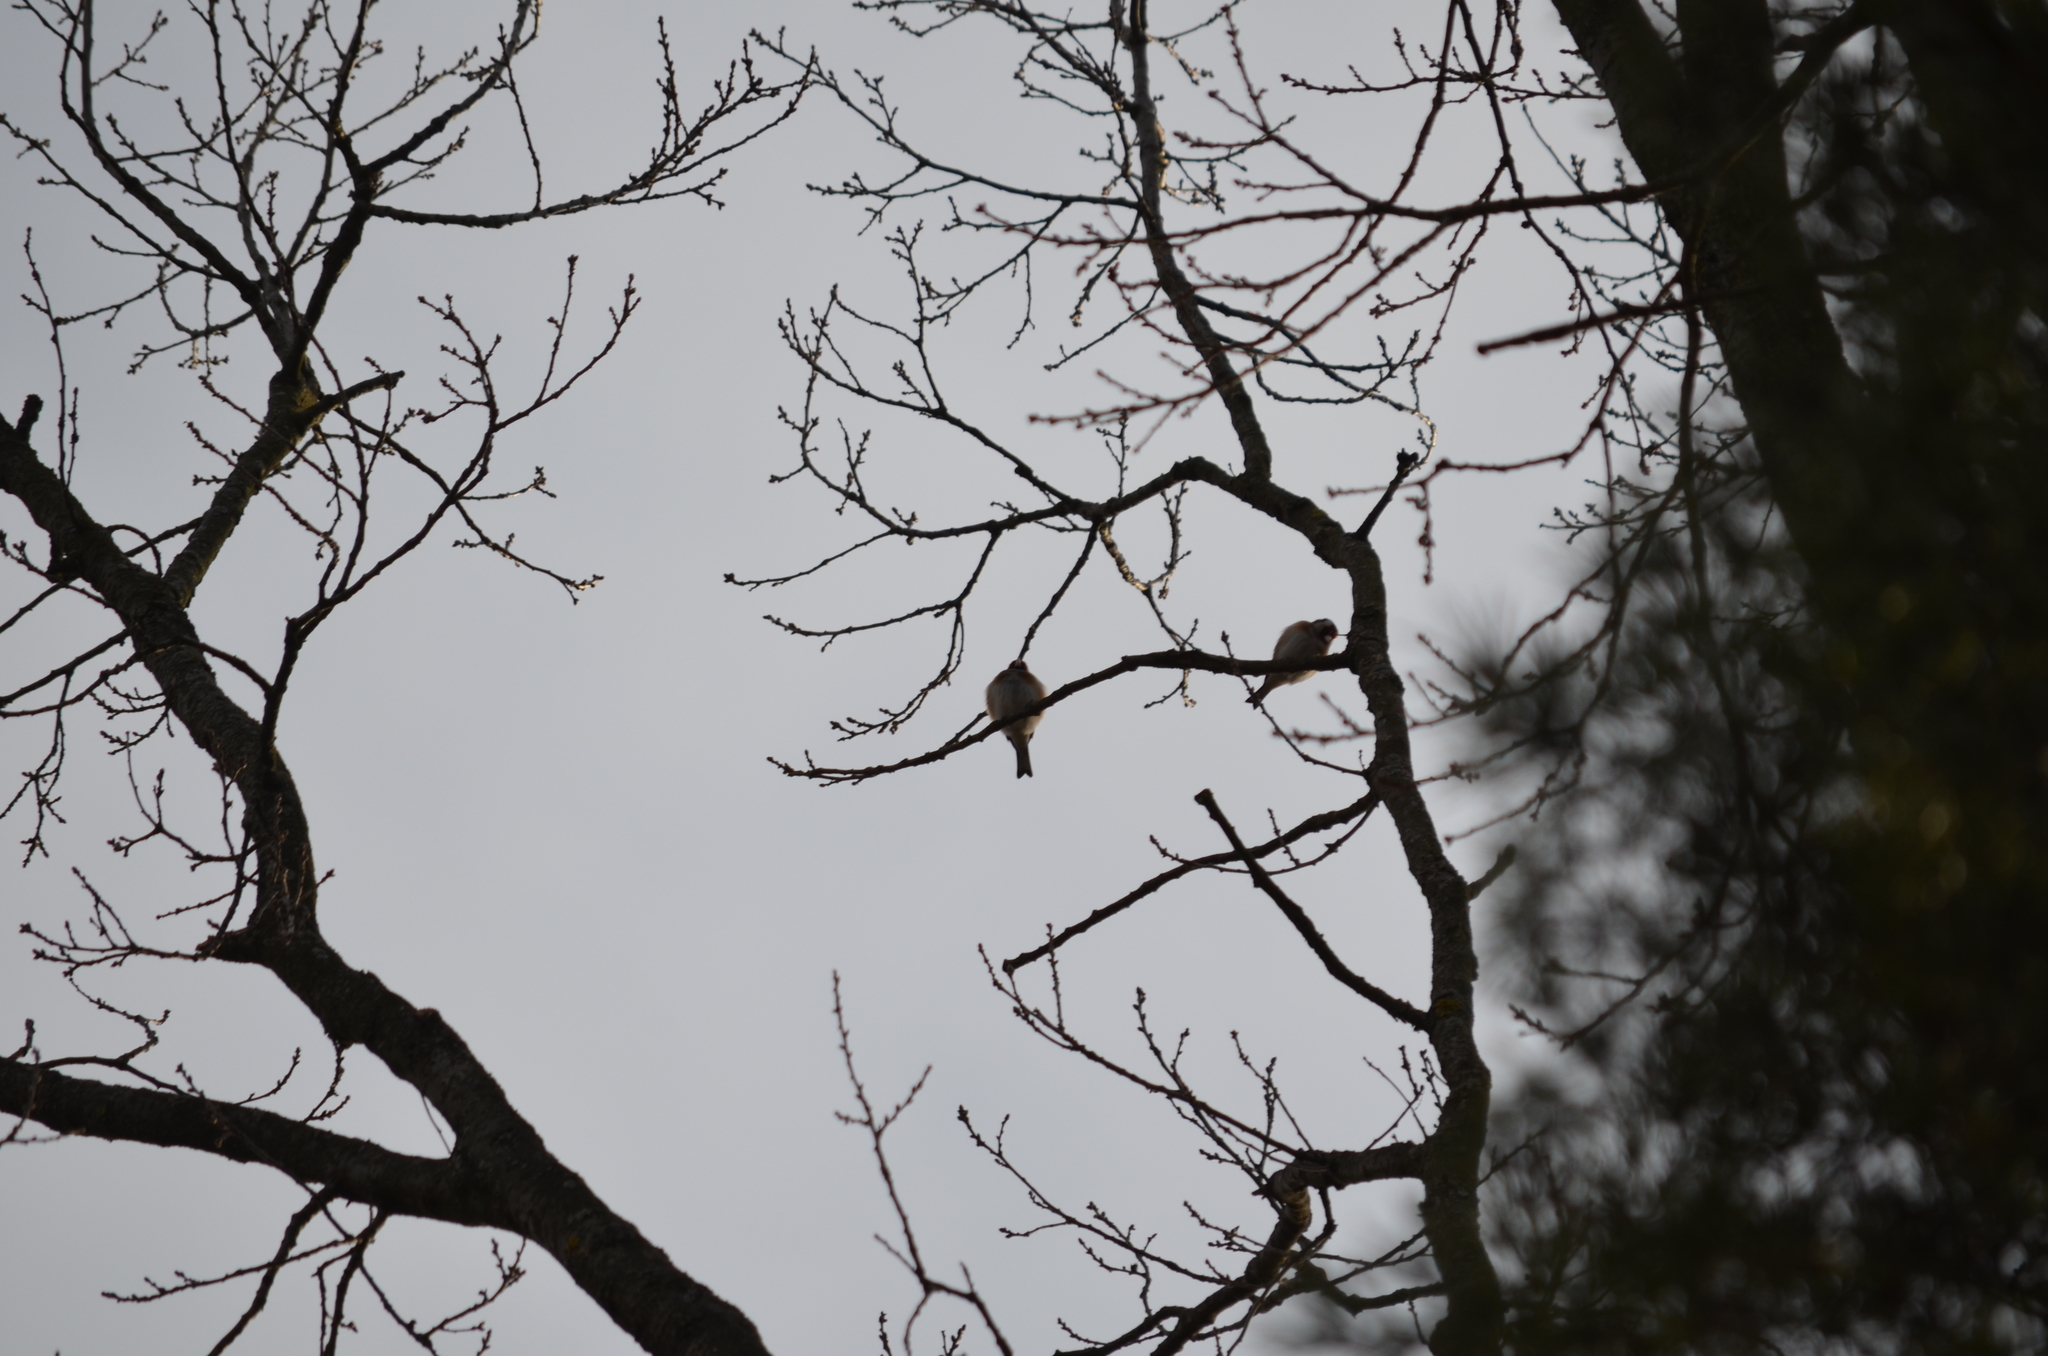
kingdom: Animalia
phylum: Chordata
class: Aves
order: Passeriformes
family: Fringillidae
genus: Carduelis
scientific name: Carduelis carduelis
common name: European goldfinch
